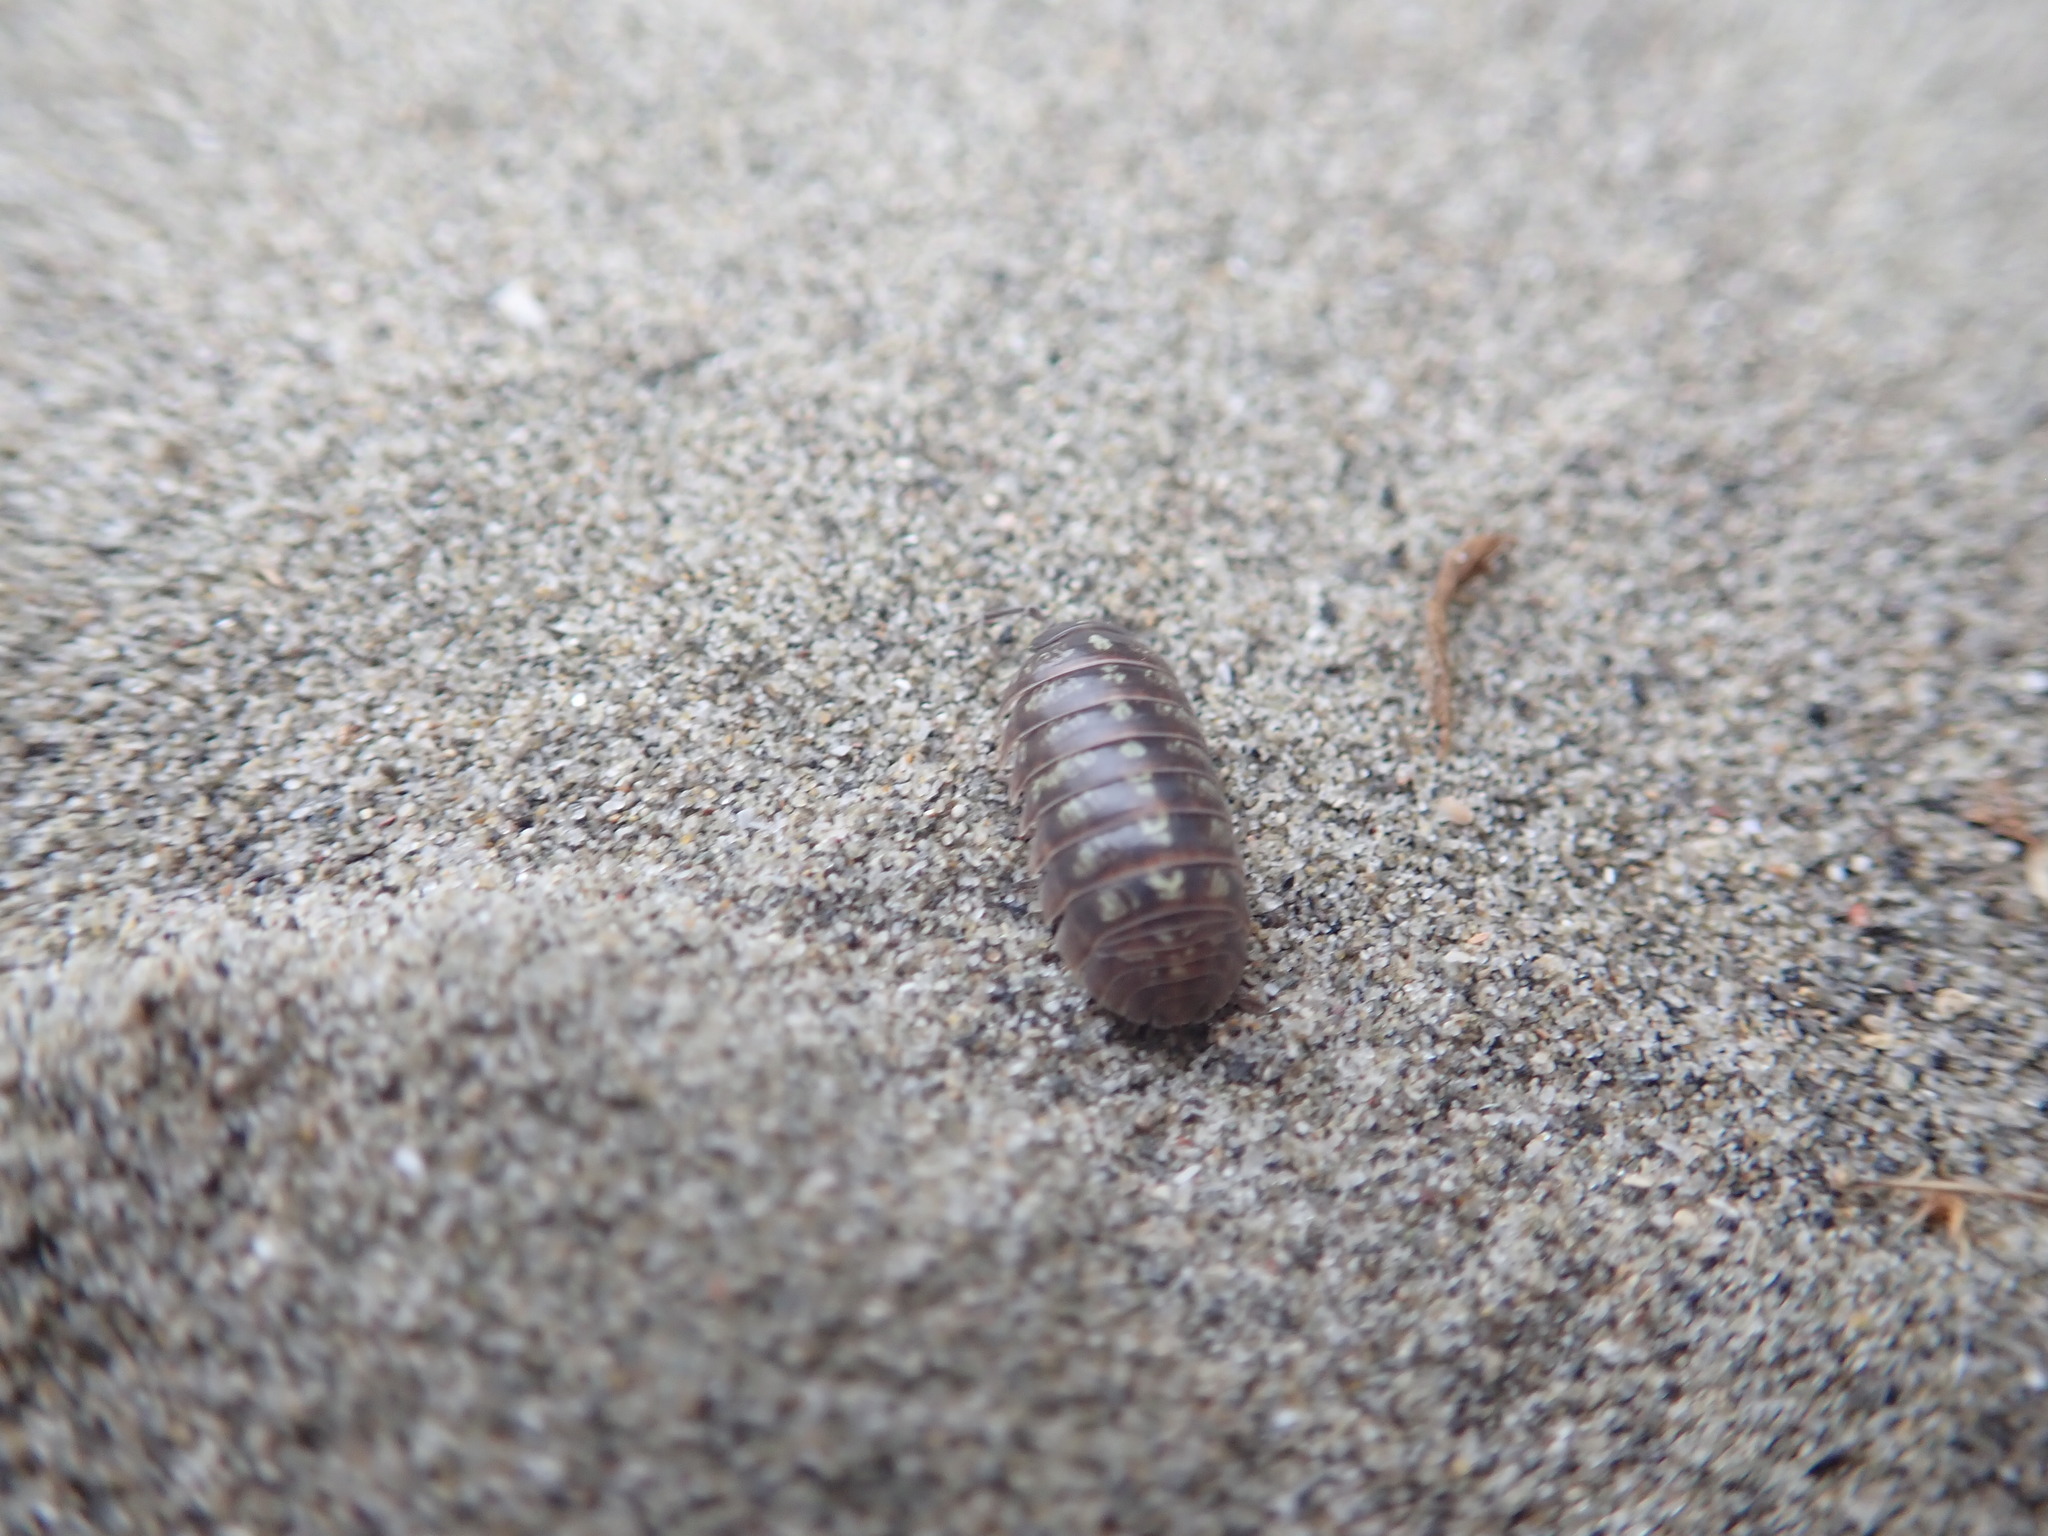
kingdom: Animalia
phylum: Arthropoda
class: Malacostraca
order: Isopoda
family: Armadillidiidae
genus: Armadillidium
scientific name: Armadillidium vulgare
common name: Common pill woodlouse
